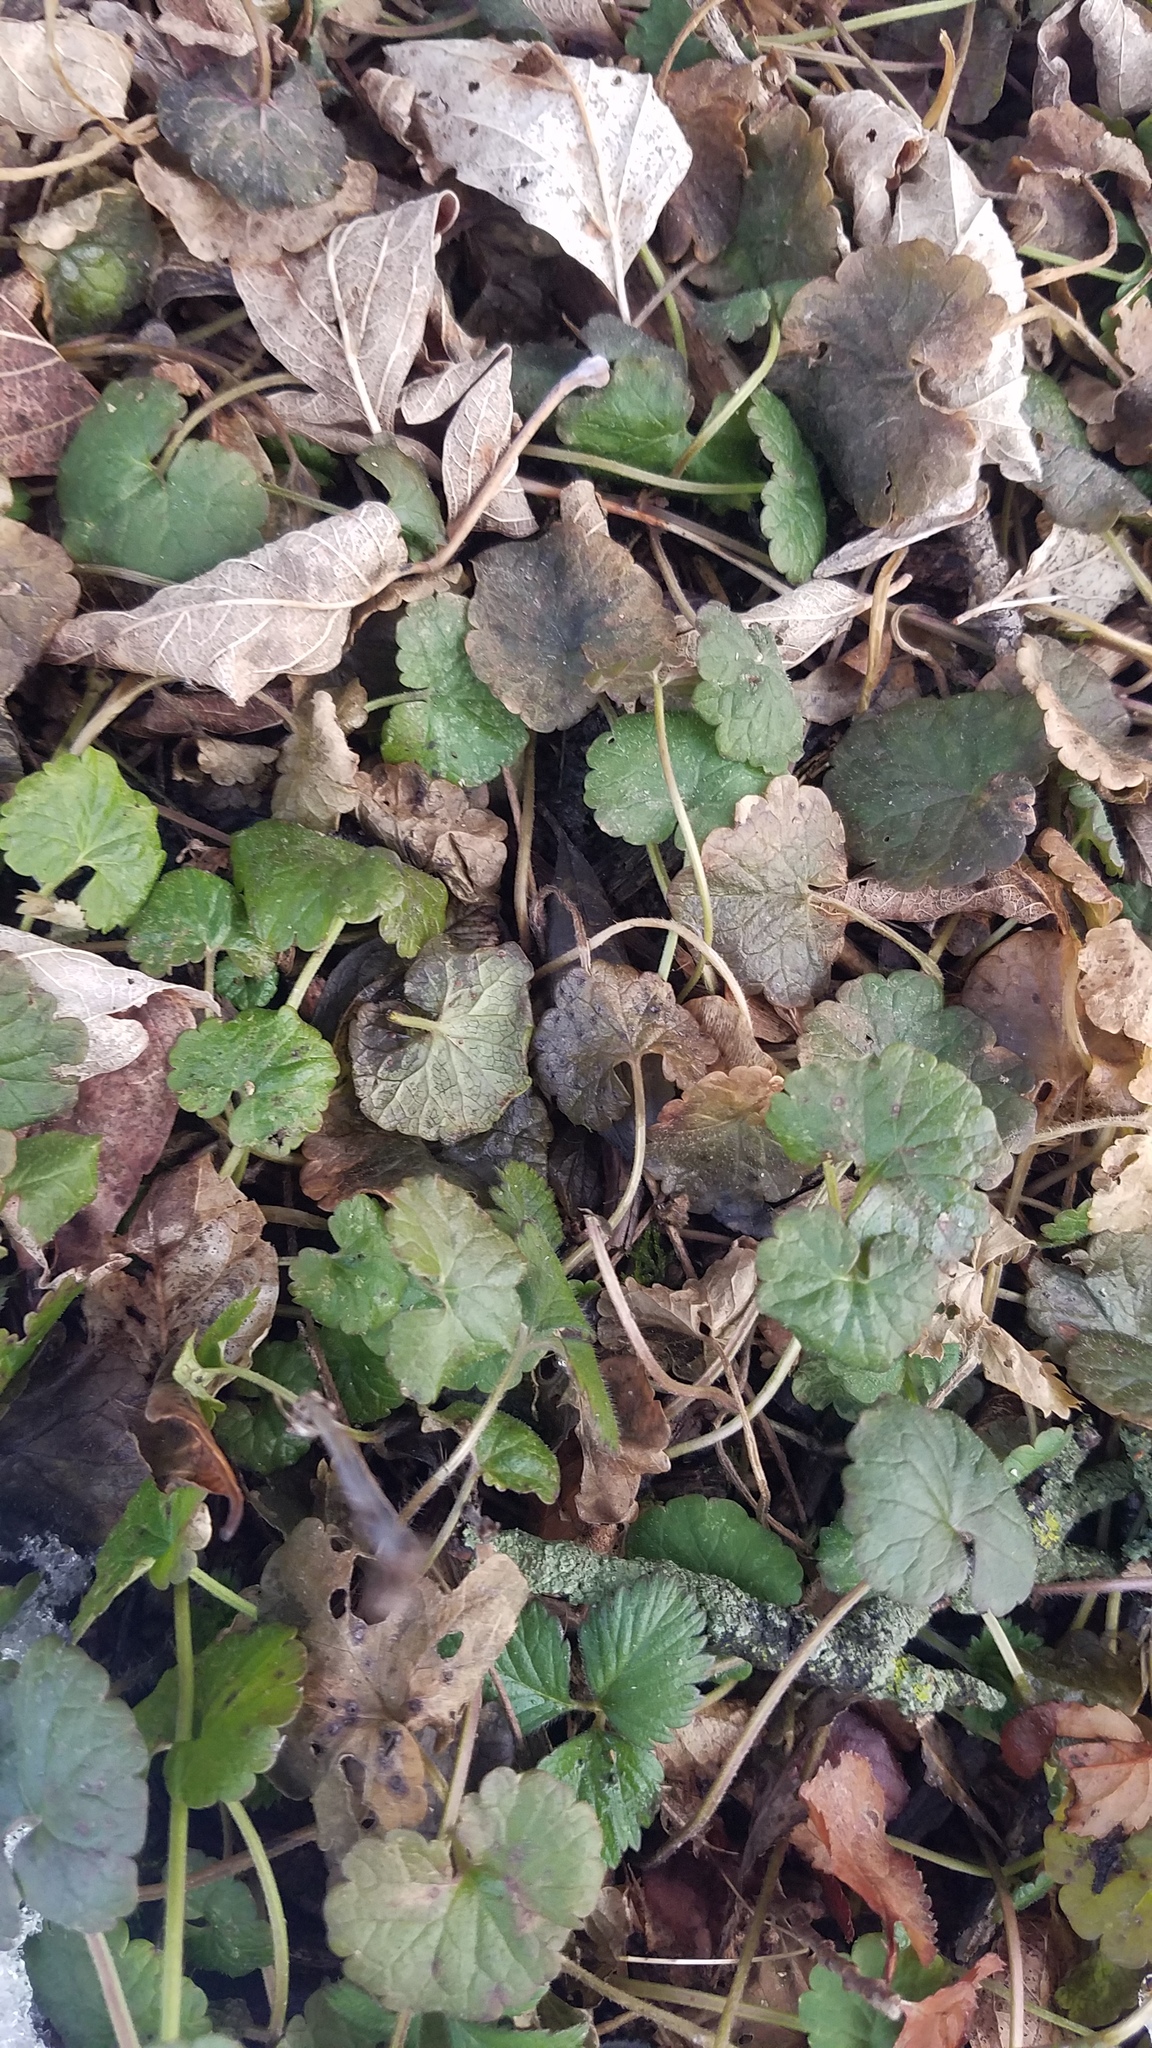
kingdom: Plantae
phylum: Tracheophyta
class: Magnoliopsida
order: Lamiales
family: Lamiaceae
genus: Glechoma
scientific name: Glechoma hederacea
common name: Ground ivy
